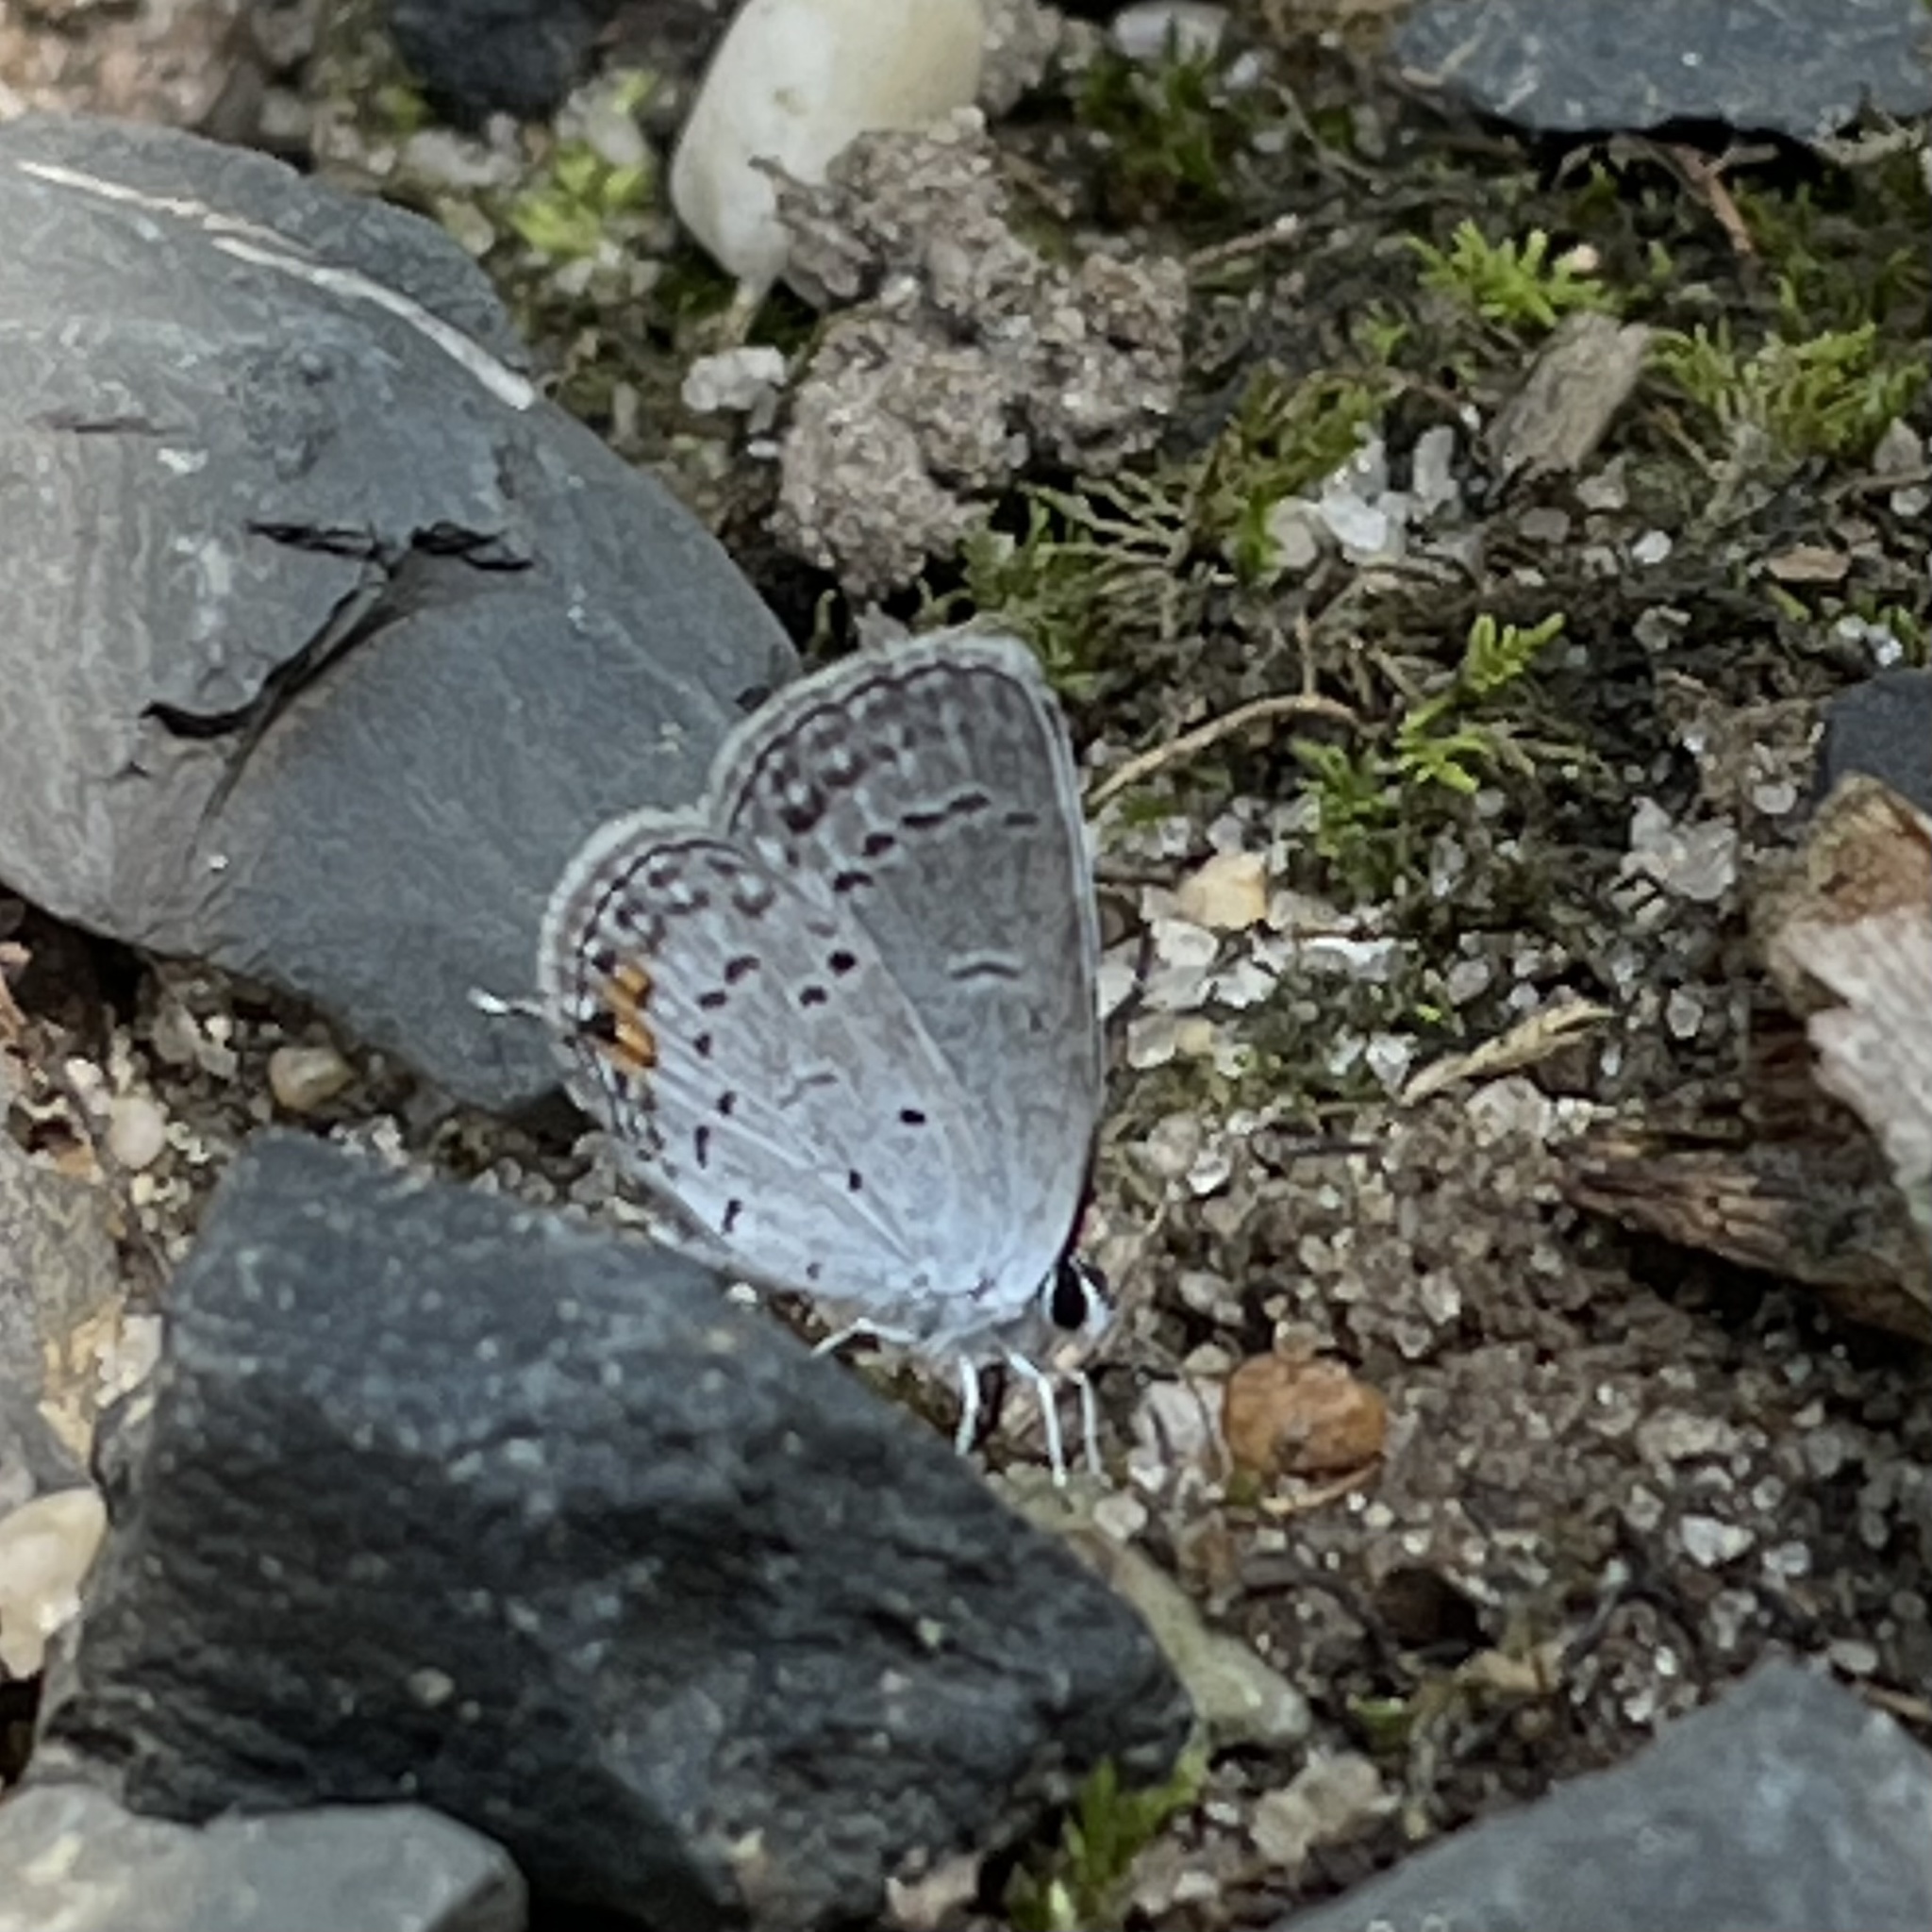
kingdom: Animalia
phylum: Arthropoda
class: Insecta
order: Lepidoptera
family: Lycaenidae
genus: Elkalyce
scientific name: Elkalyce comyntas
